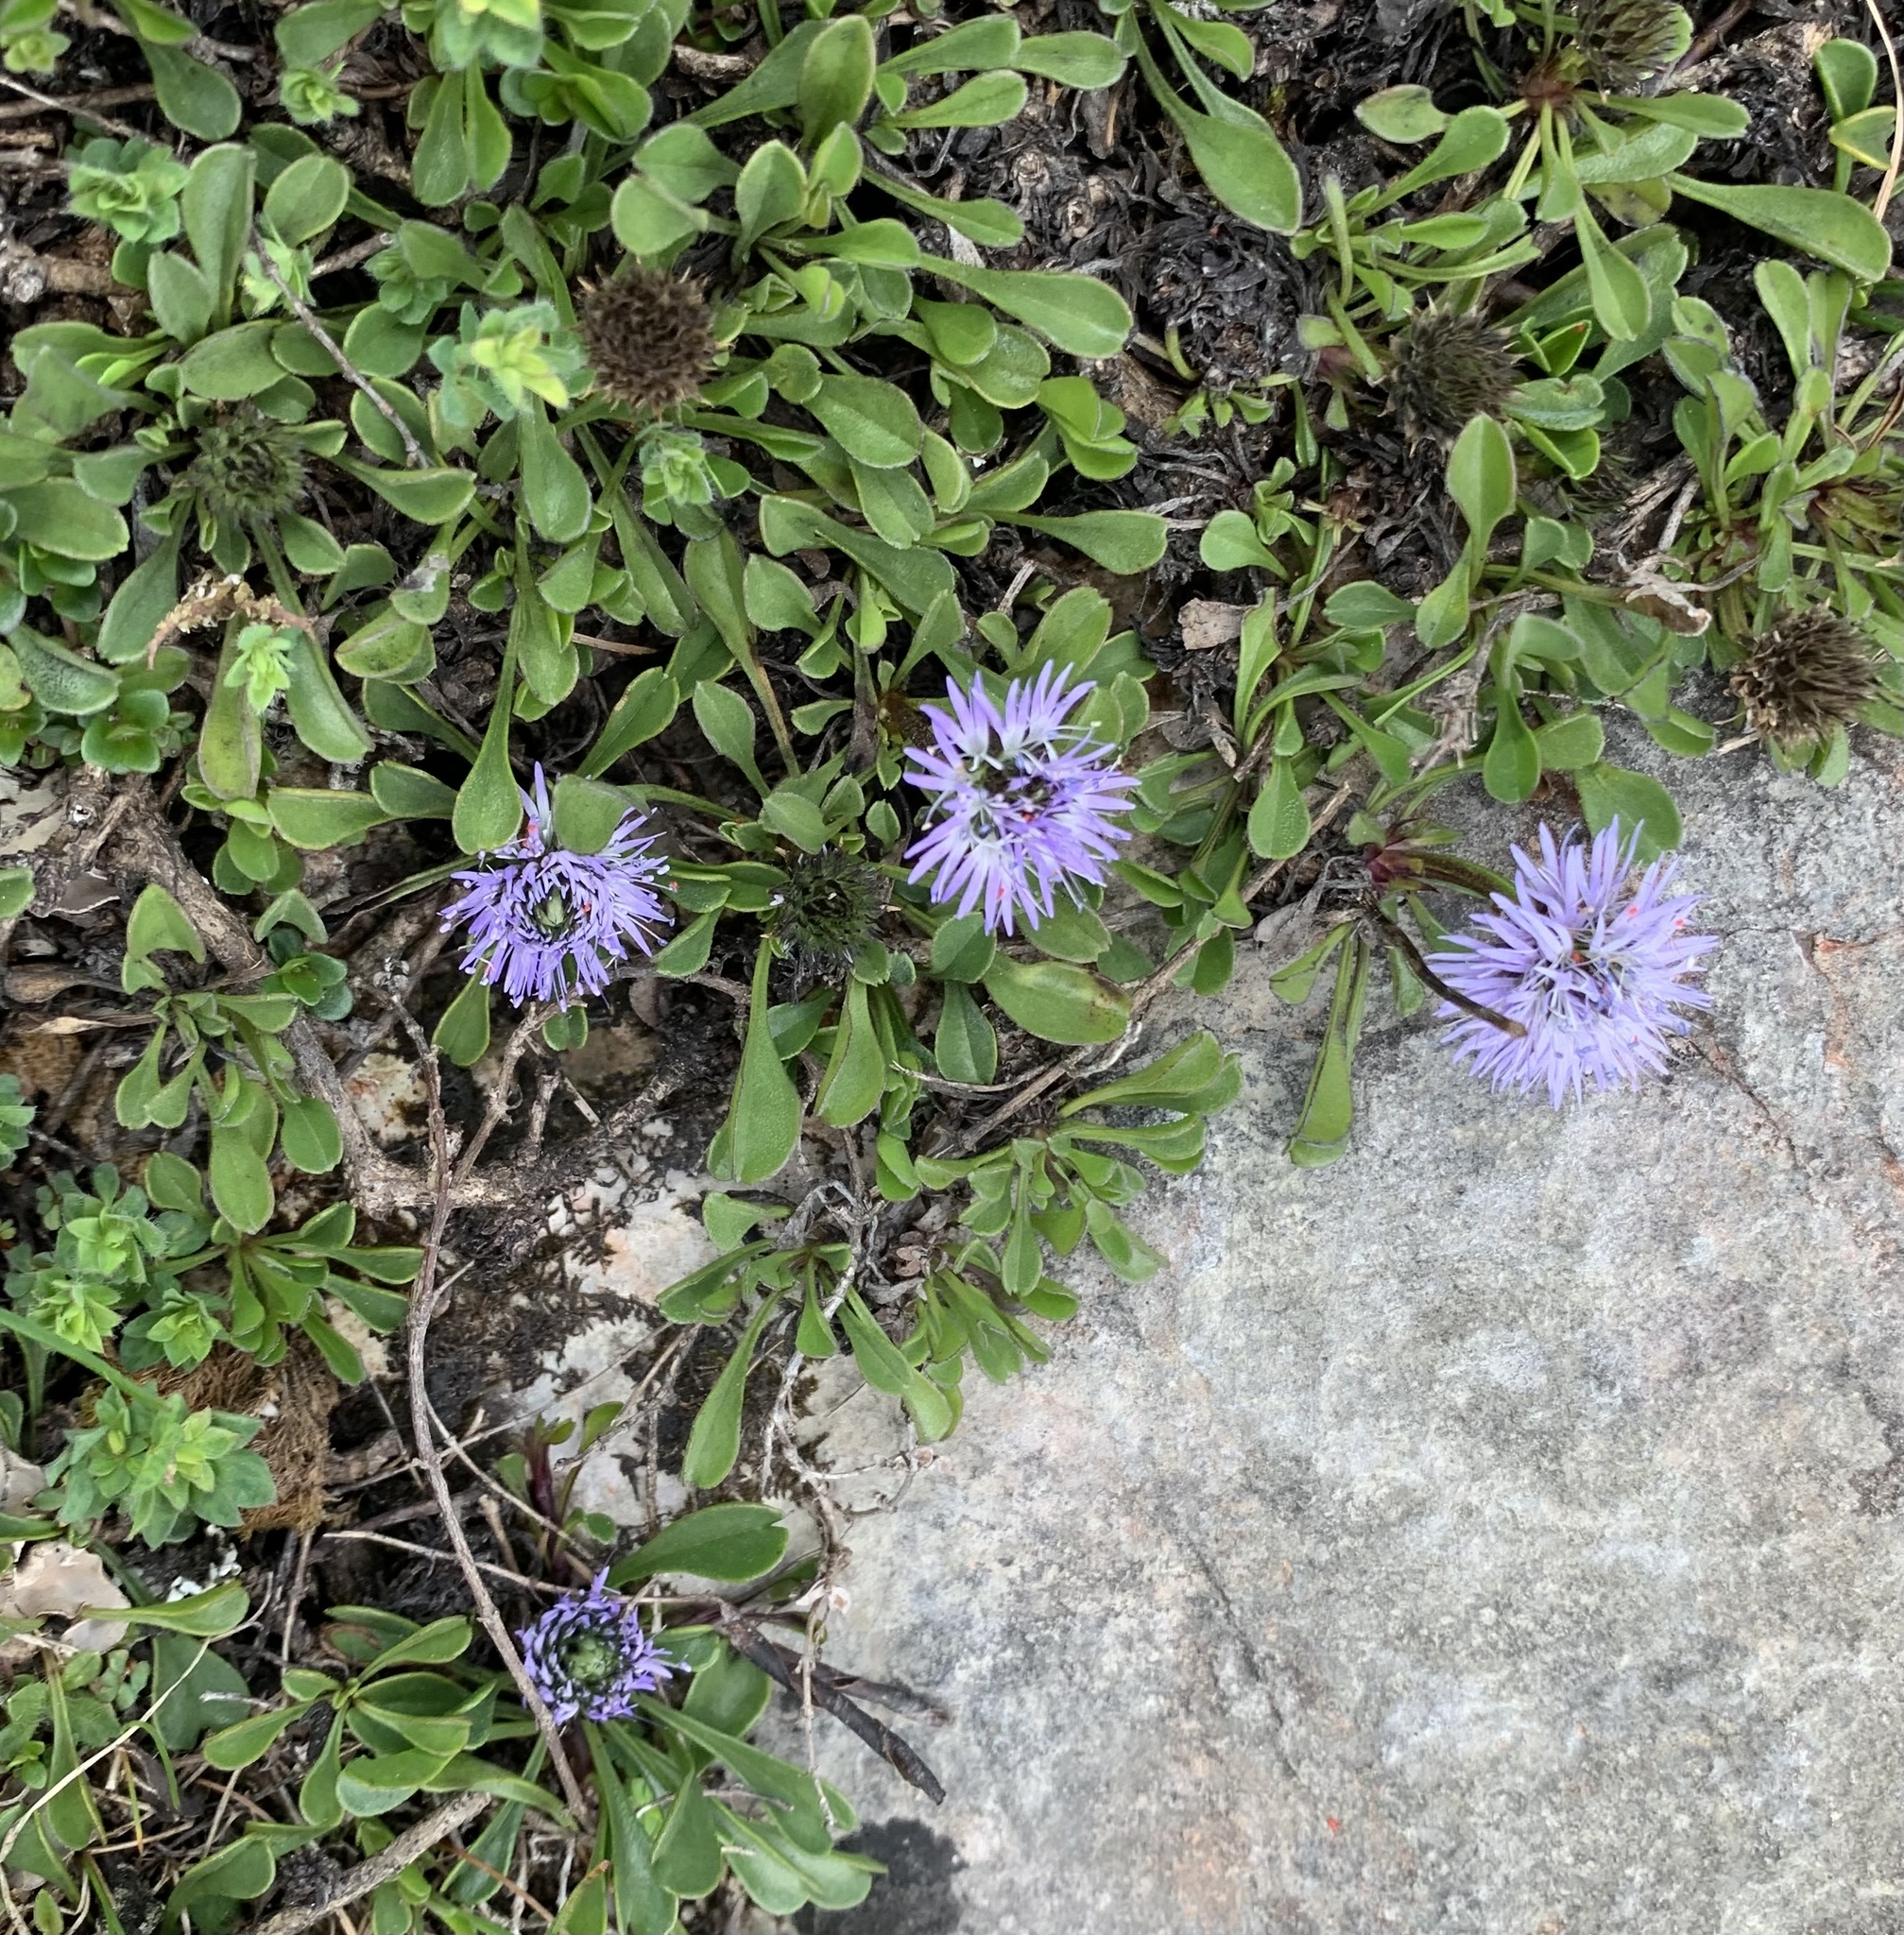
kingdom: Plantae
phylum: Tracheophyta
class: Magnoliopsida
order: Lamiales
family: Plantaginaceae
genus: Globularia
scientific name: Globularia cordifolia
